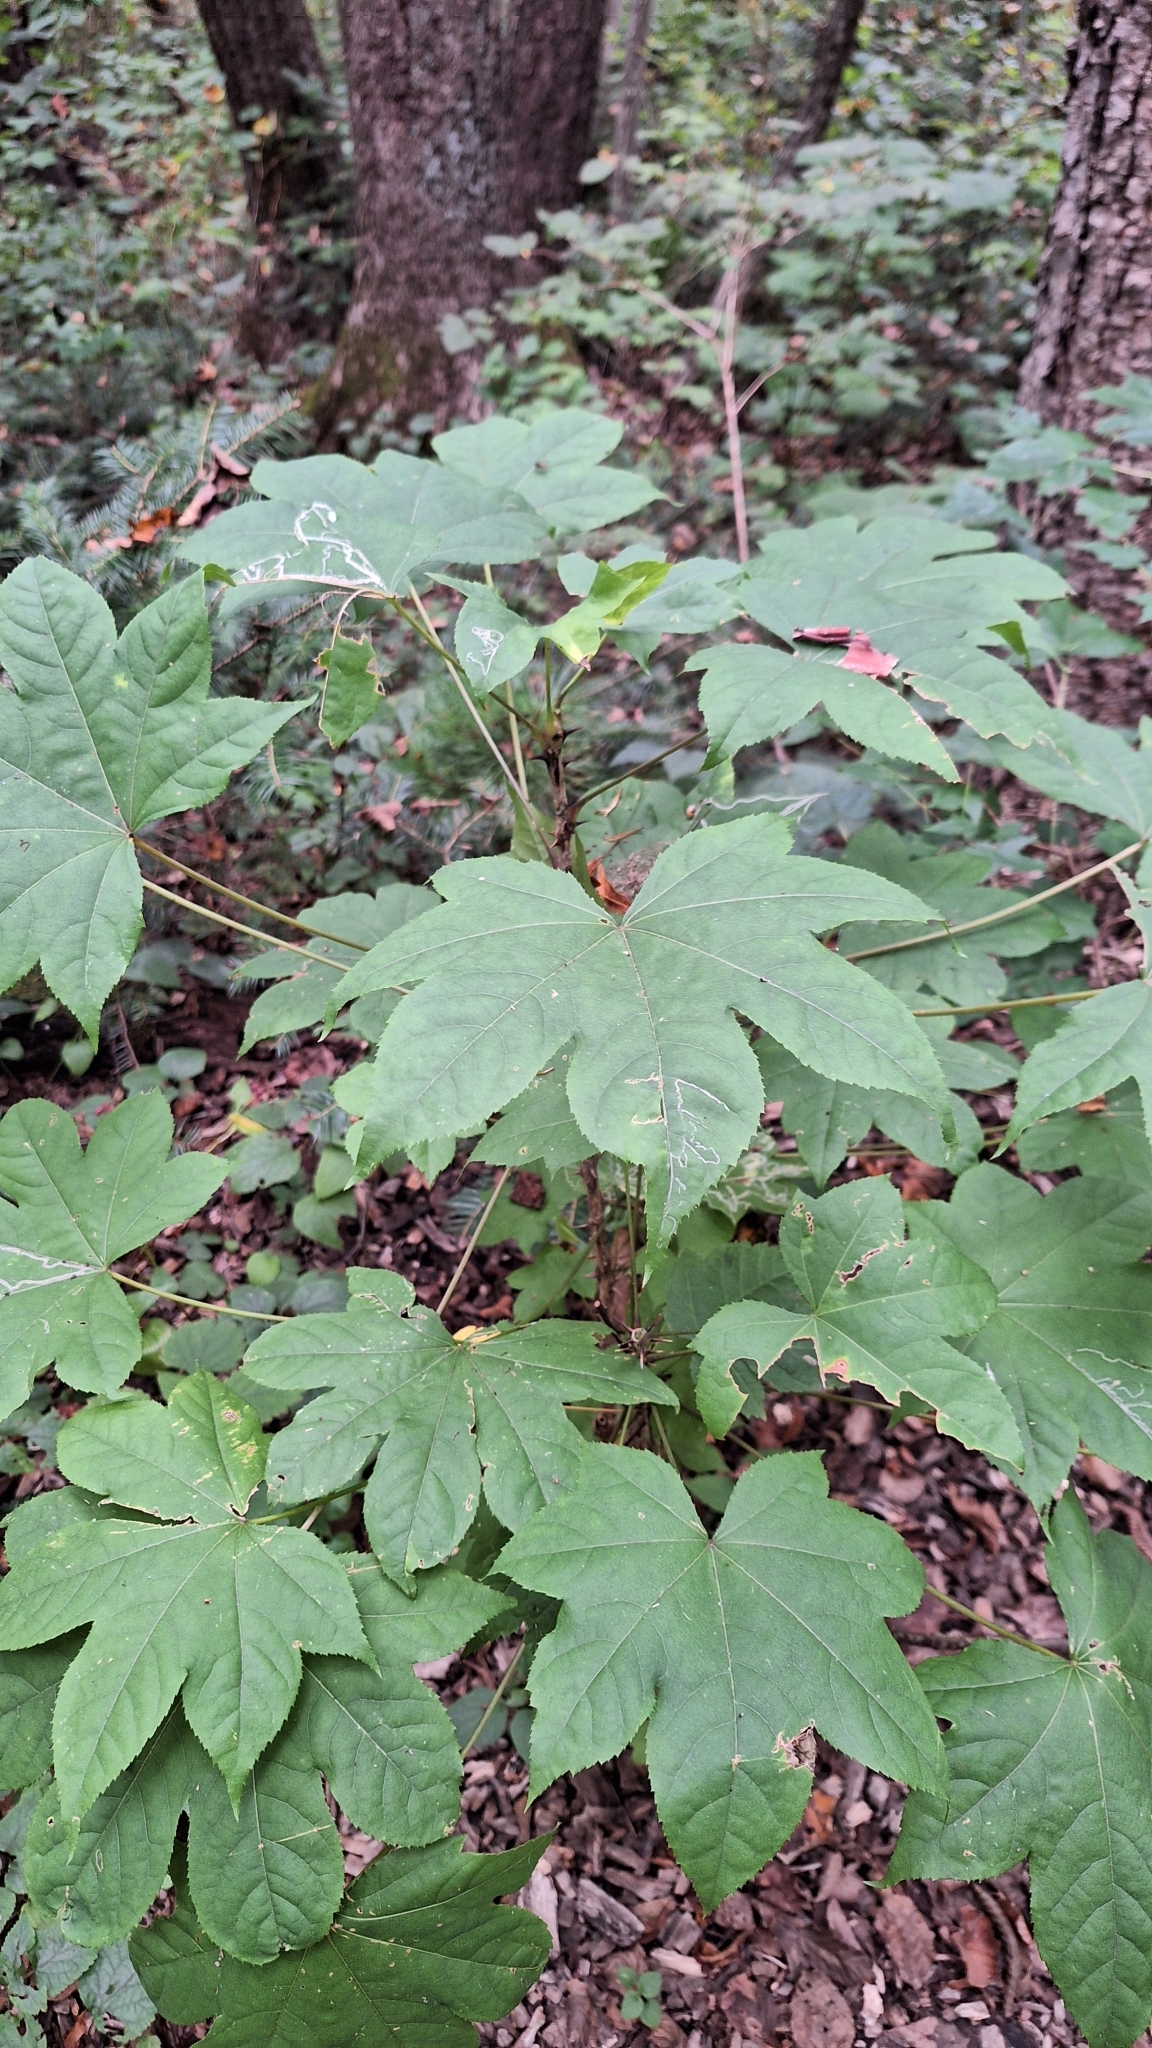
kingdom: Plantae
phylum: Tracheophyta
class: Magnoliopsida
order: Apiales
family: Araliaceae
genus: Kalopanax
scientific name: Kalopanax septemlobus
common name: Castor aralia
